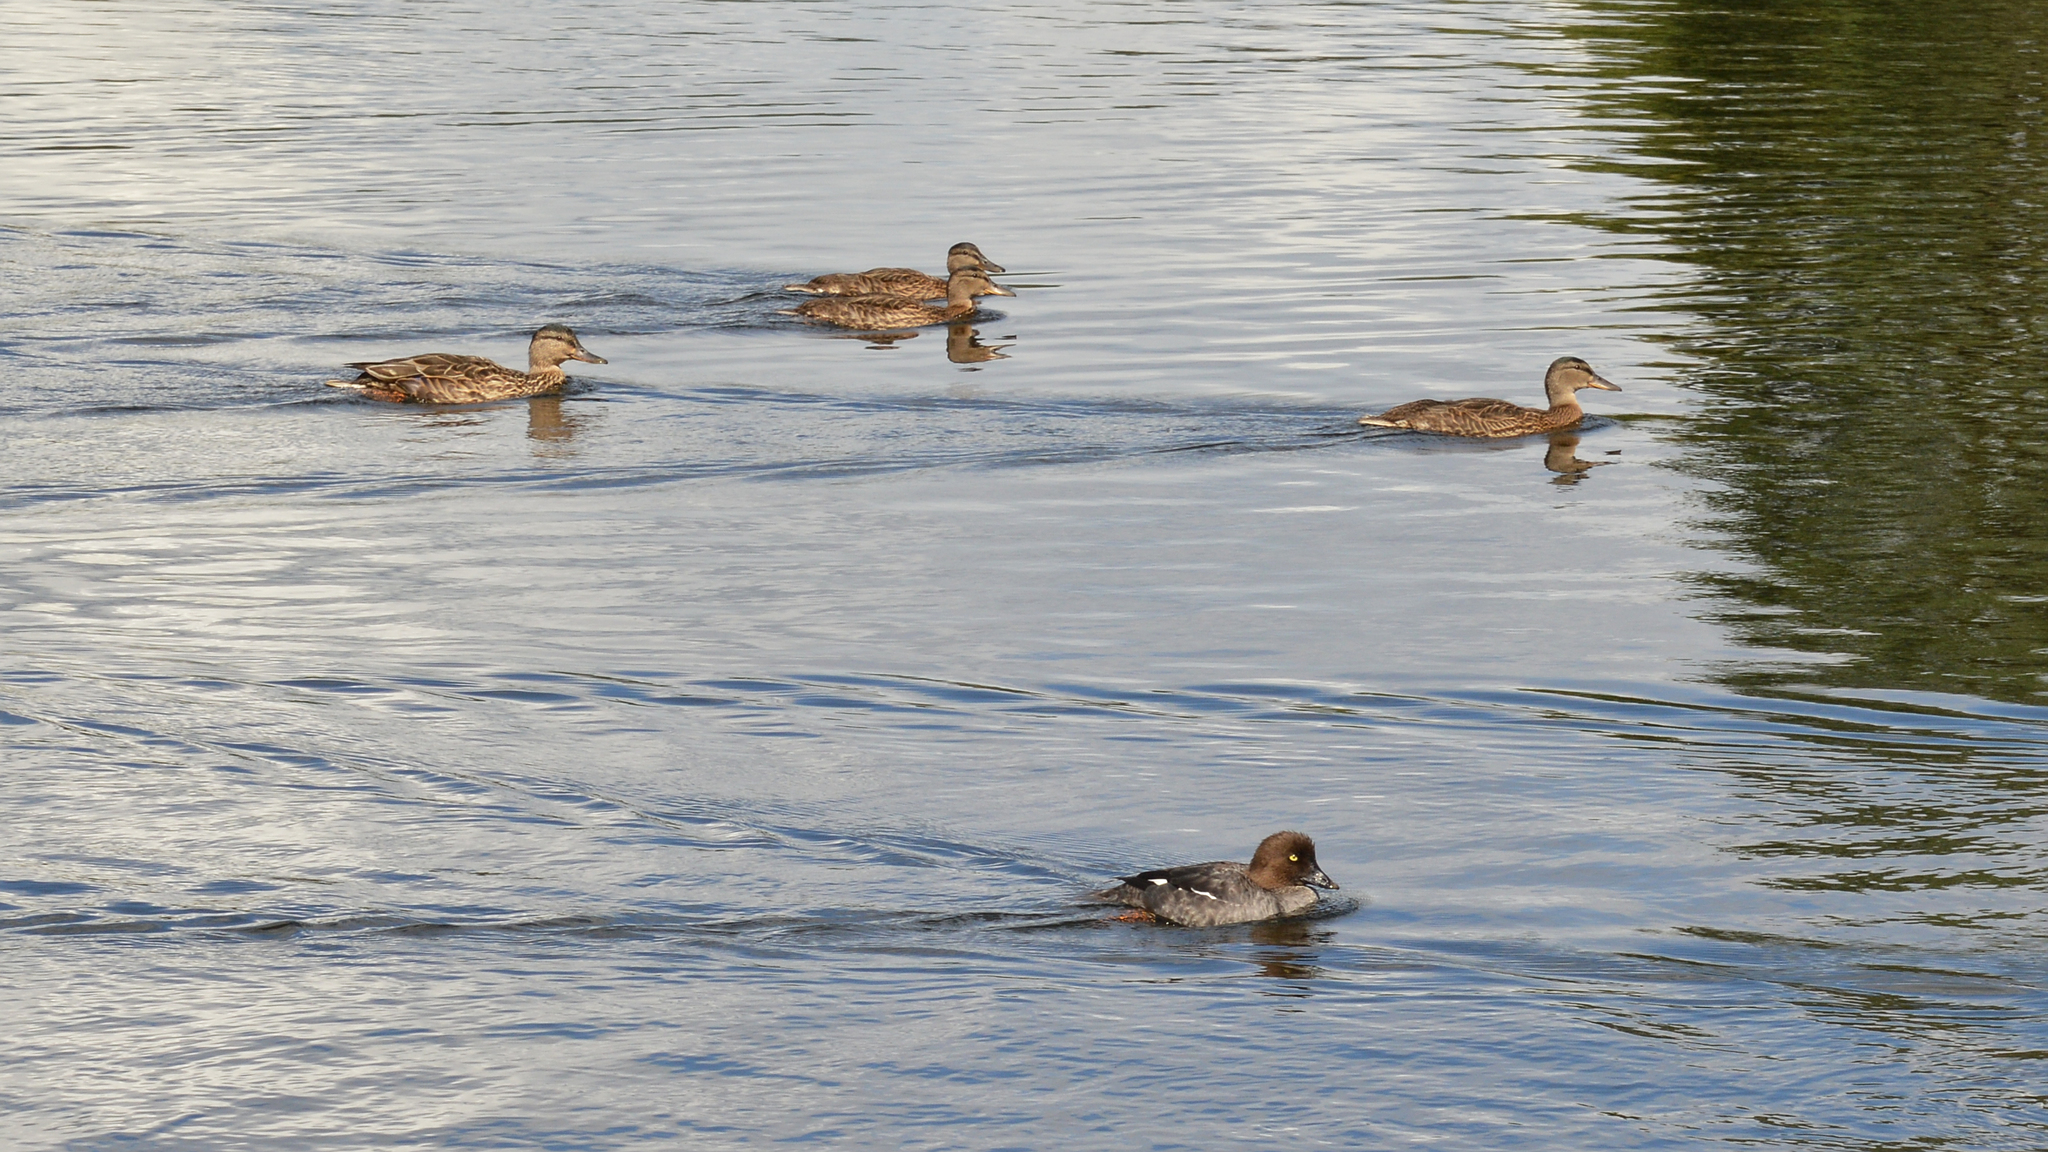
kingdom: Animalia
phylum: Chordata
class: Aves
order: Anseriformes
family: Anatidae
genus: Anas
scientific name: Anas platyrhynchos
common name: Mallard
